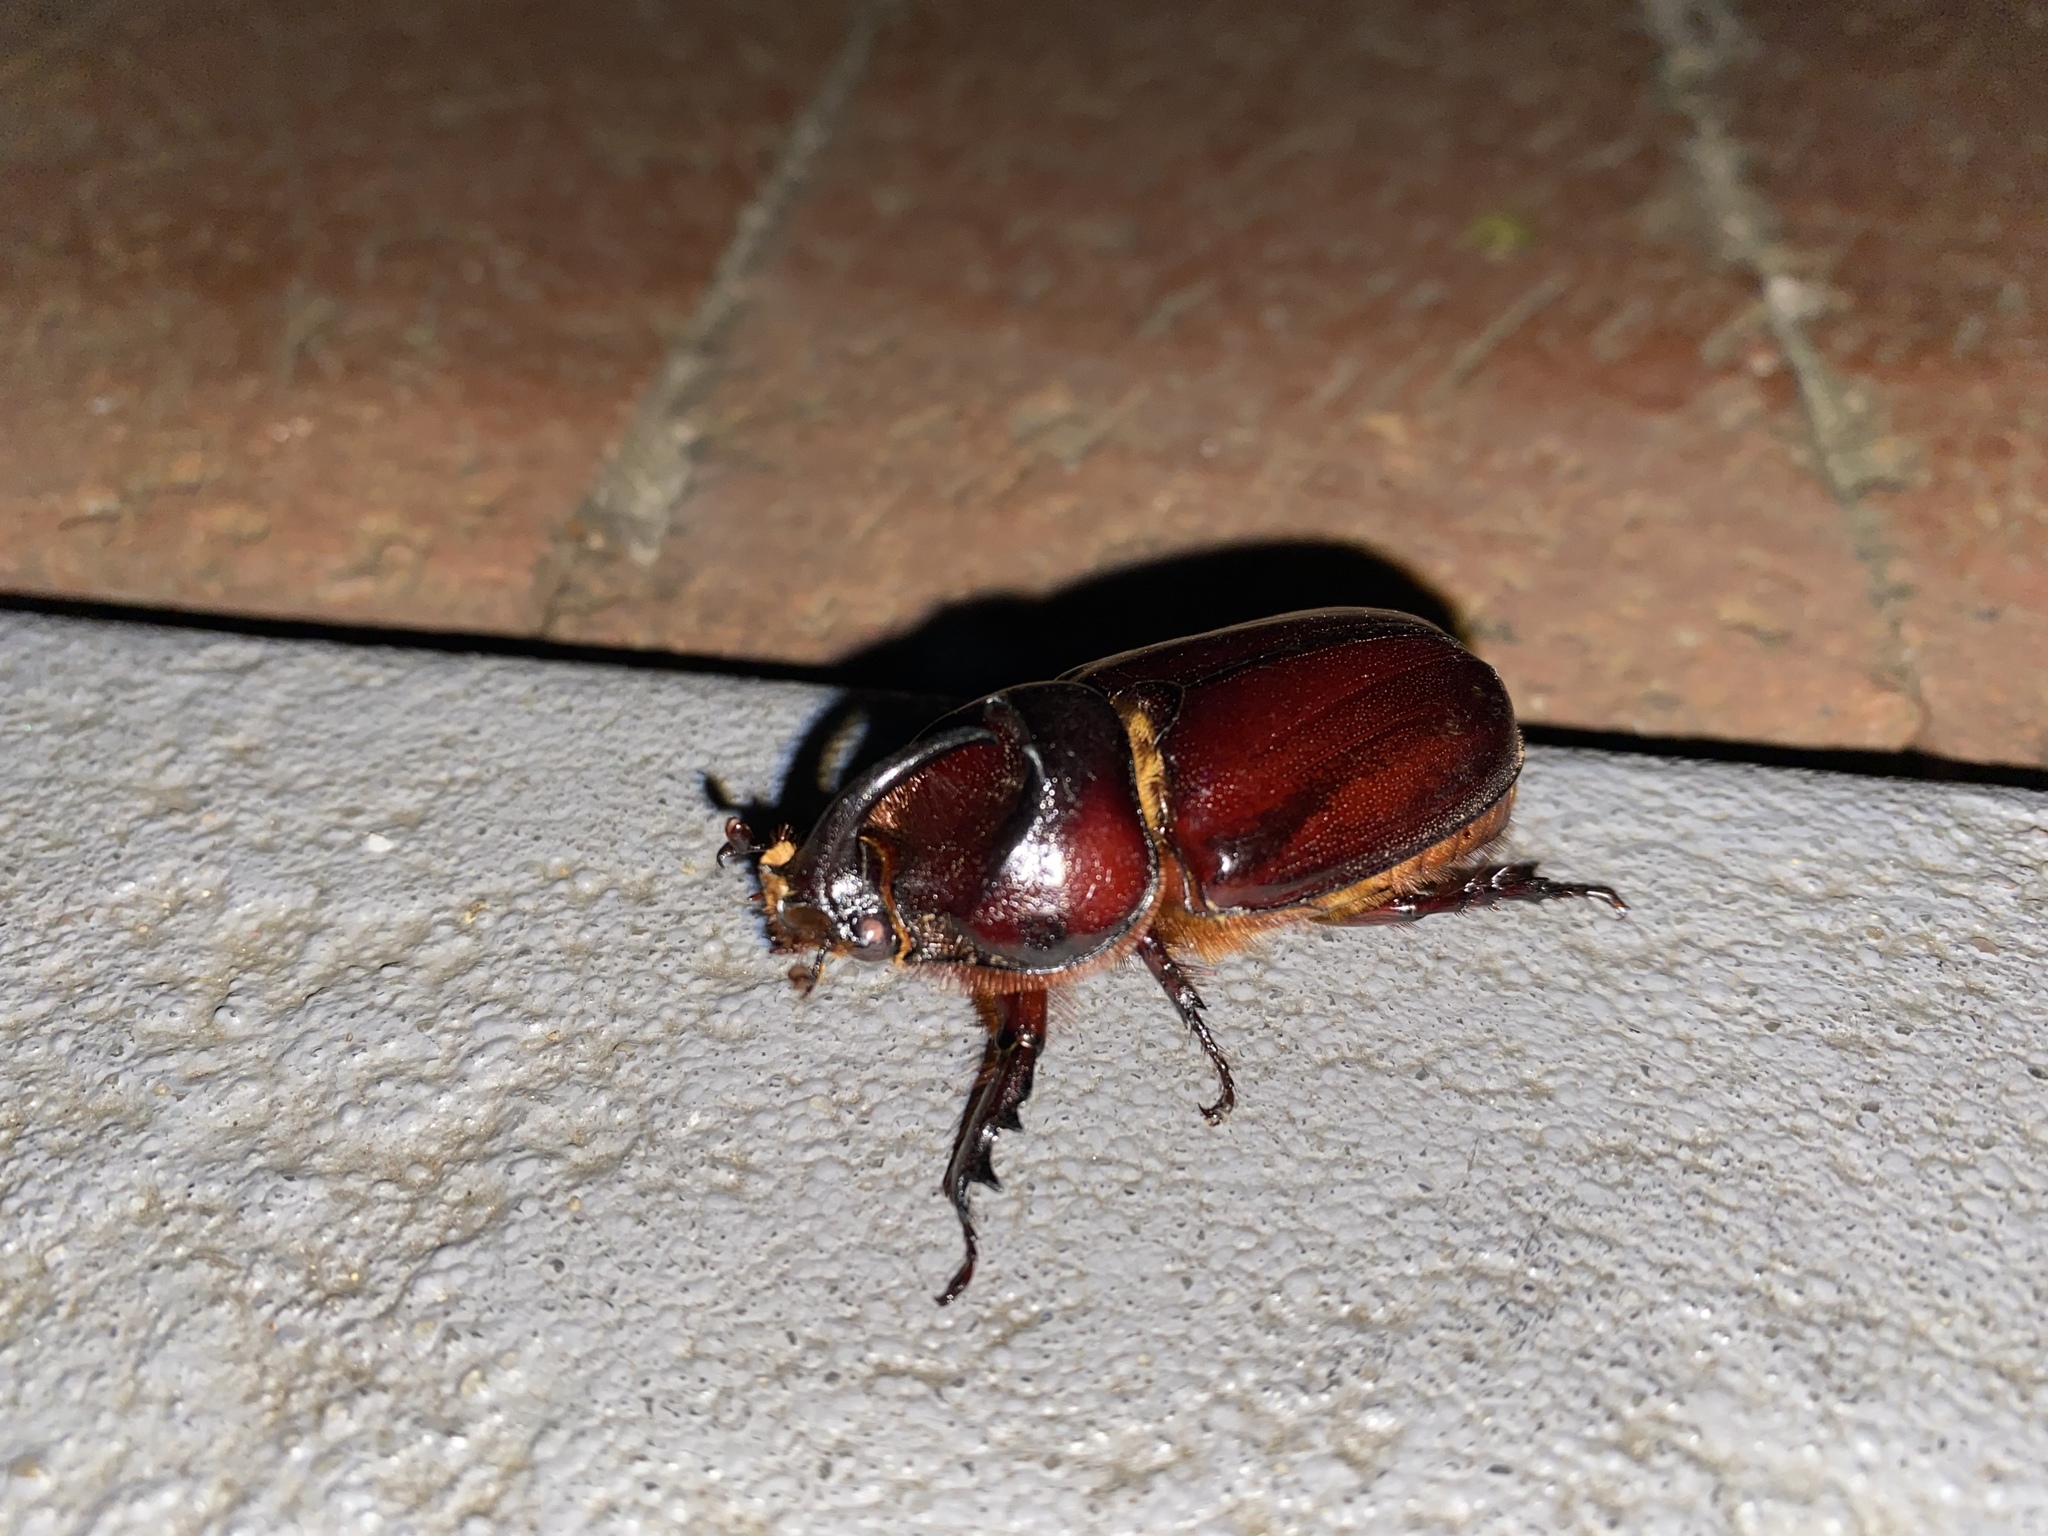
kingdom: Animalia
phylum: Arthropoda
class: Insecta
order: Coleoptera
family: Scarabaeidae
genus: Oryctes
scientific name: Oryctes boas
